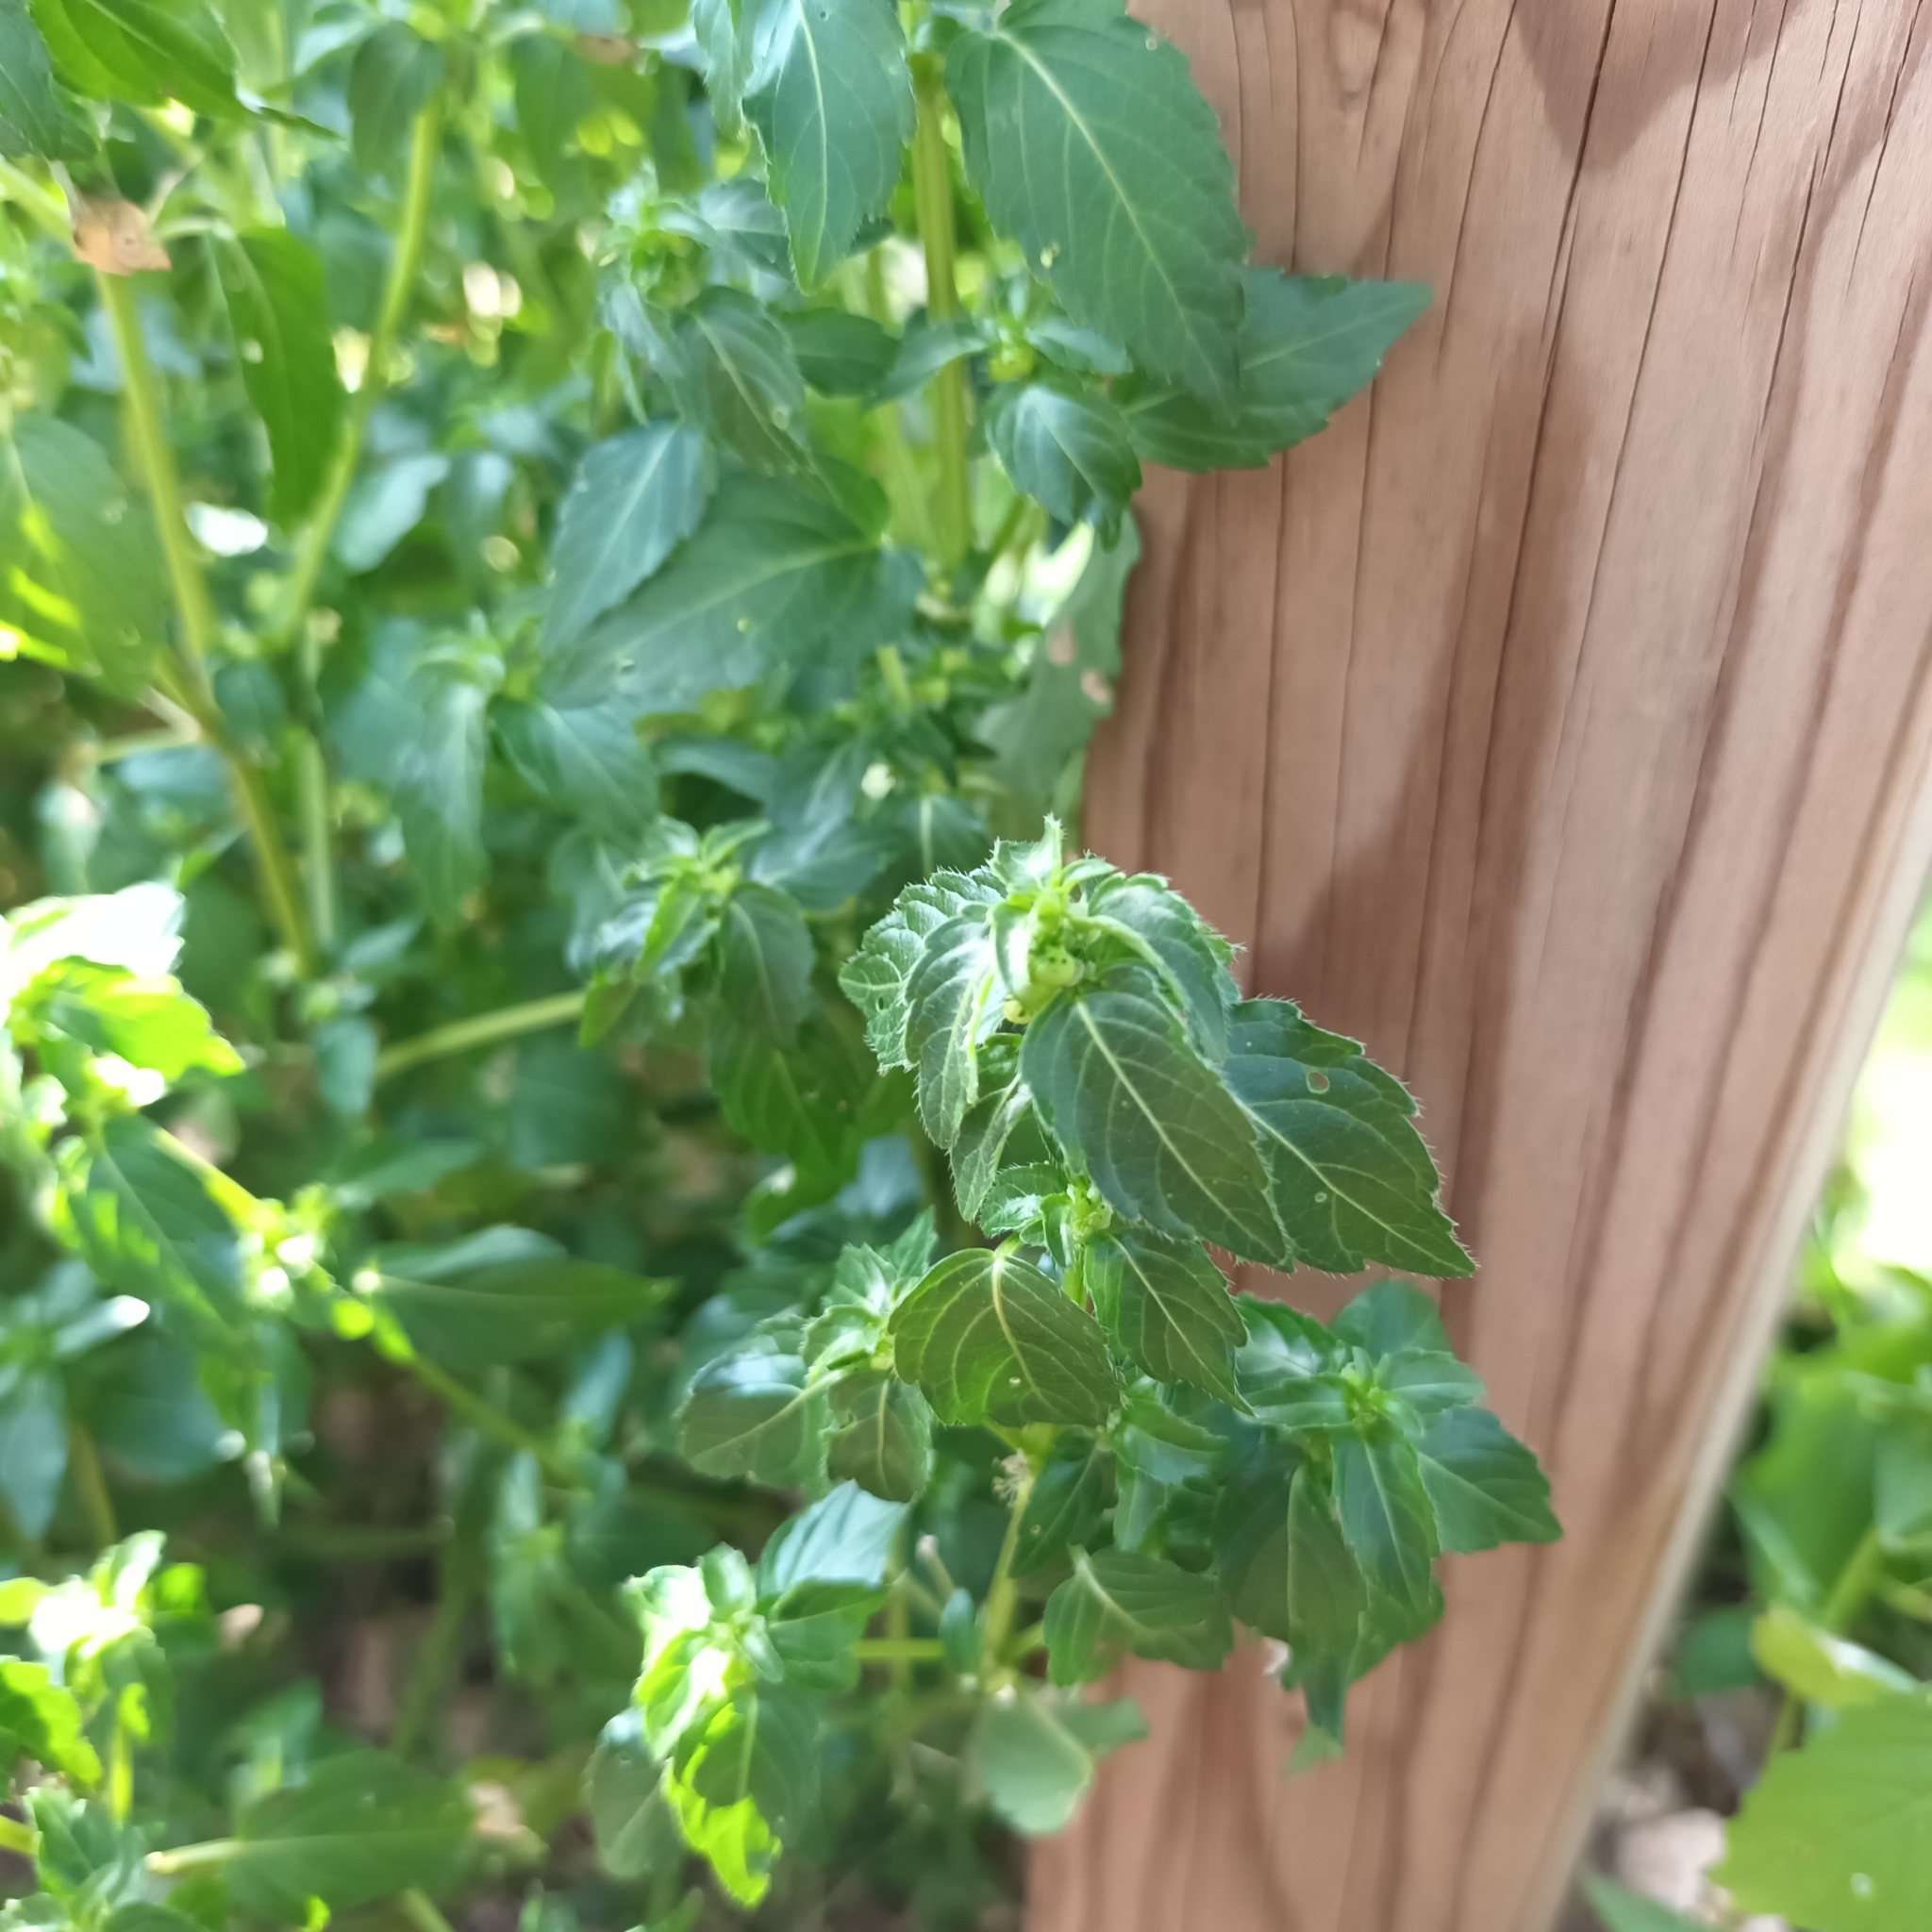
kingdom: Plantae
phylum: Tracheophyta
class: Magnoliopsida
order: Malpighiales
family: Euphorbiaceae
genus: Mercurialis
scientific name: Mercurialis annua
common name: Annual mercury
